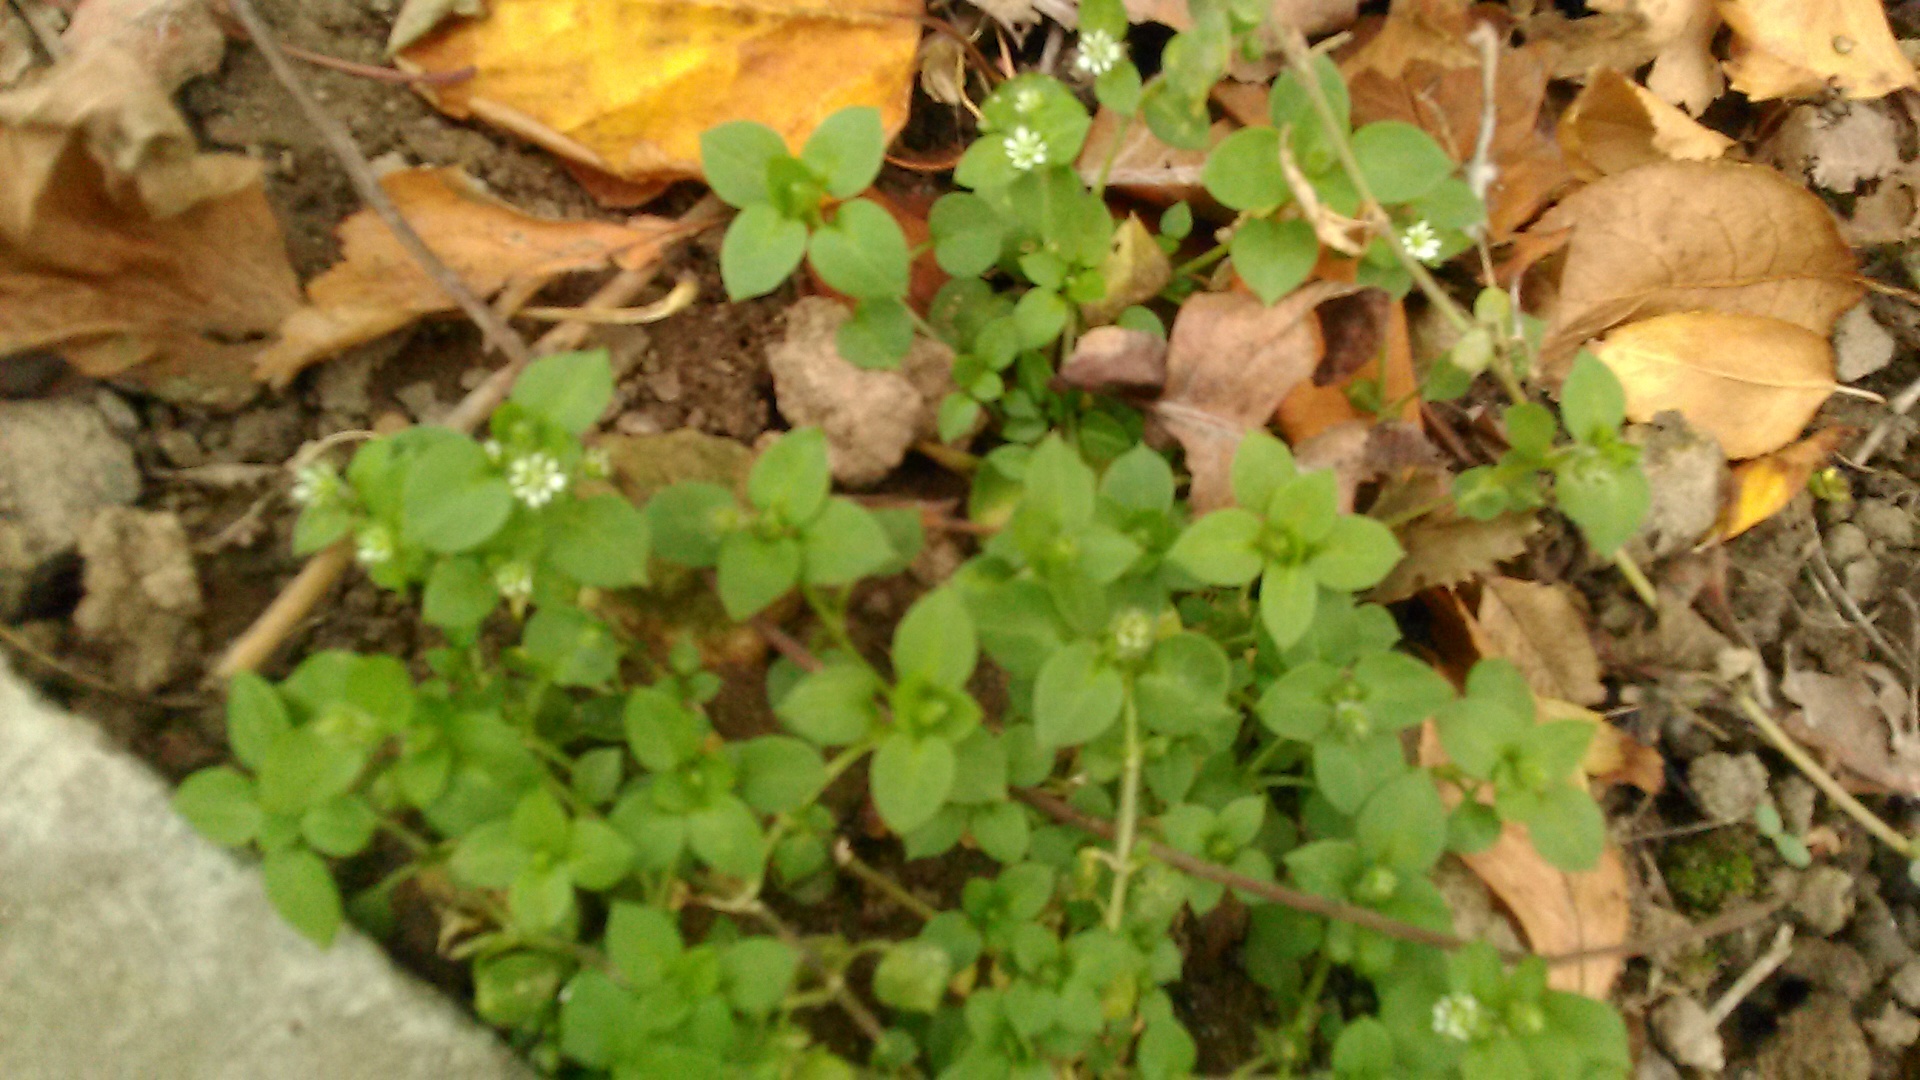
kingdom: Plantae
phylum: Tracheophyta
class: Magnoliopsida
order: Caryophyllales
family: Caryophyllaceae
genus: Stellaria
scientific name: Stellaria media
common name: Common chickweed
